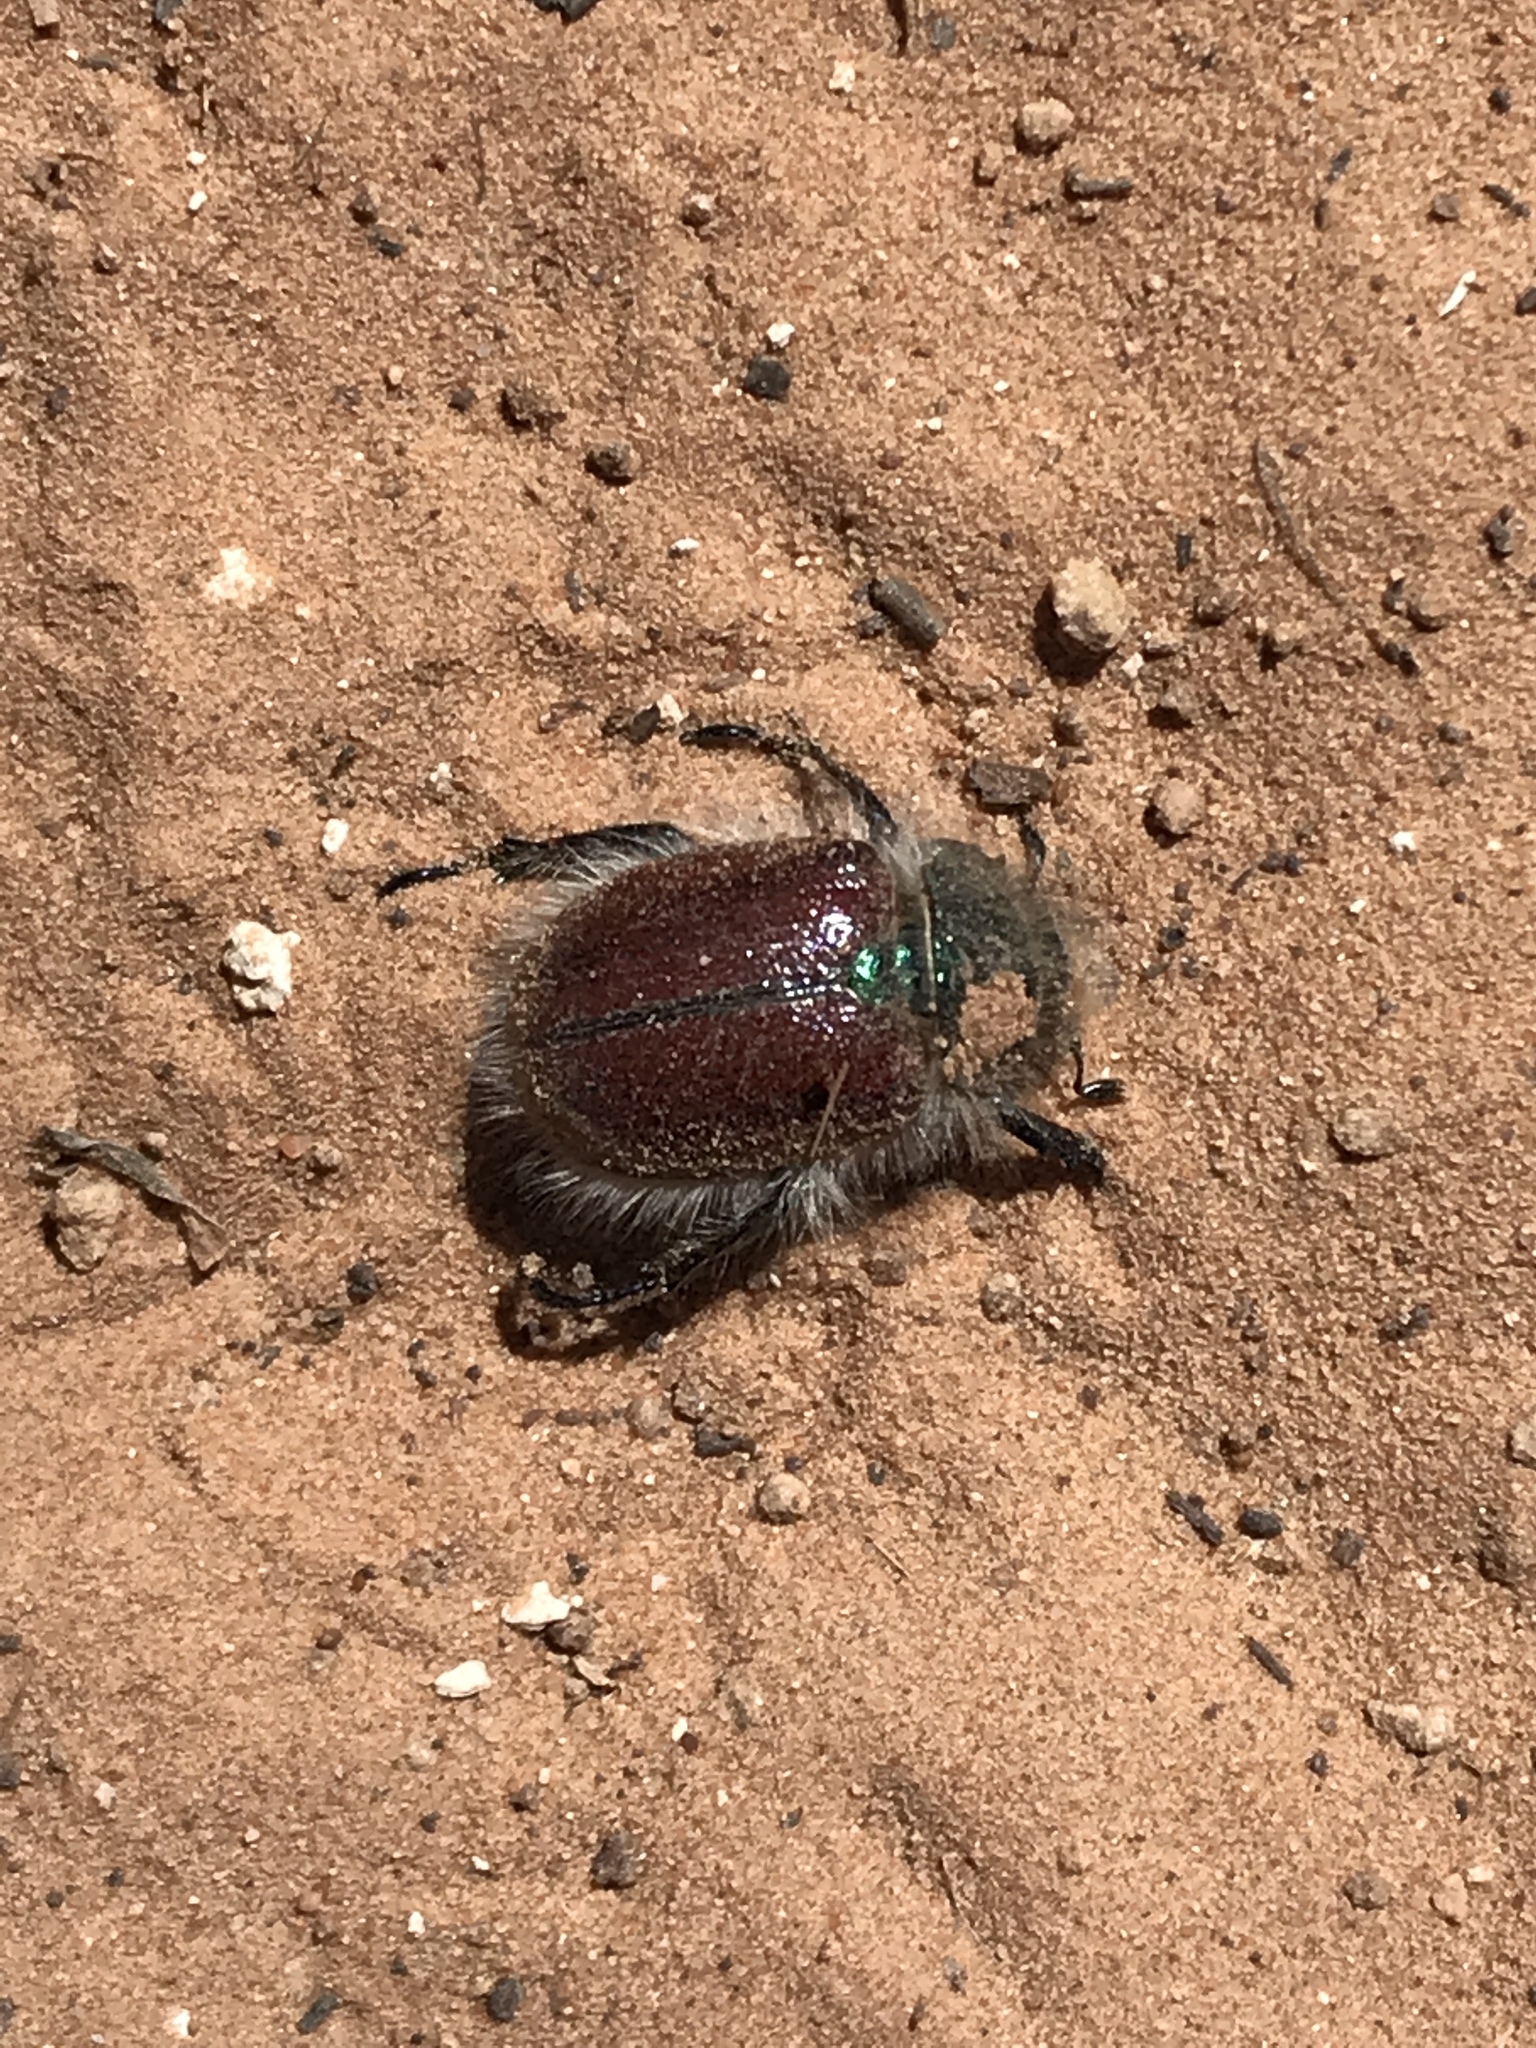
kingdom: Animalia
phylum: Arthropoda
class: Insecta
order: Coleoptera
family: Scarabaeidae
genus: Paracotalpa
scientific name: Paracotalpa granicollis
